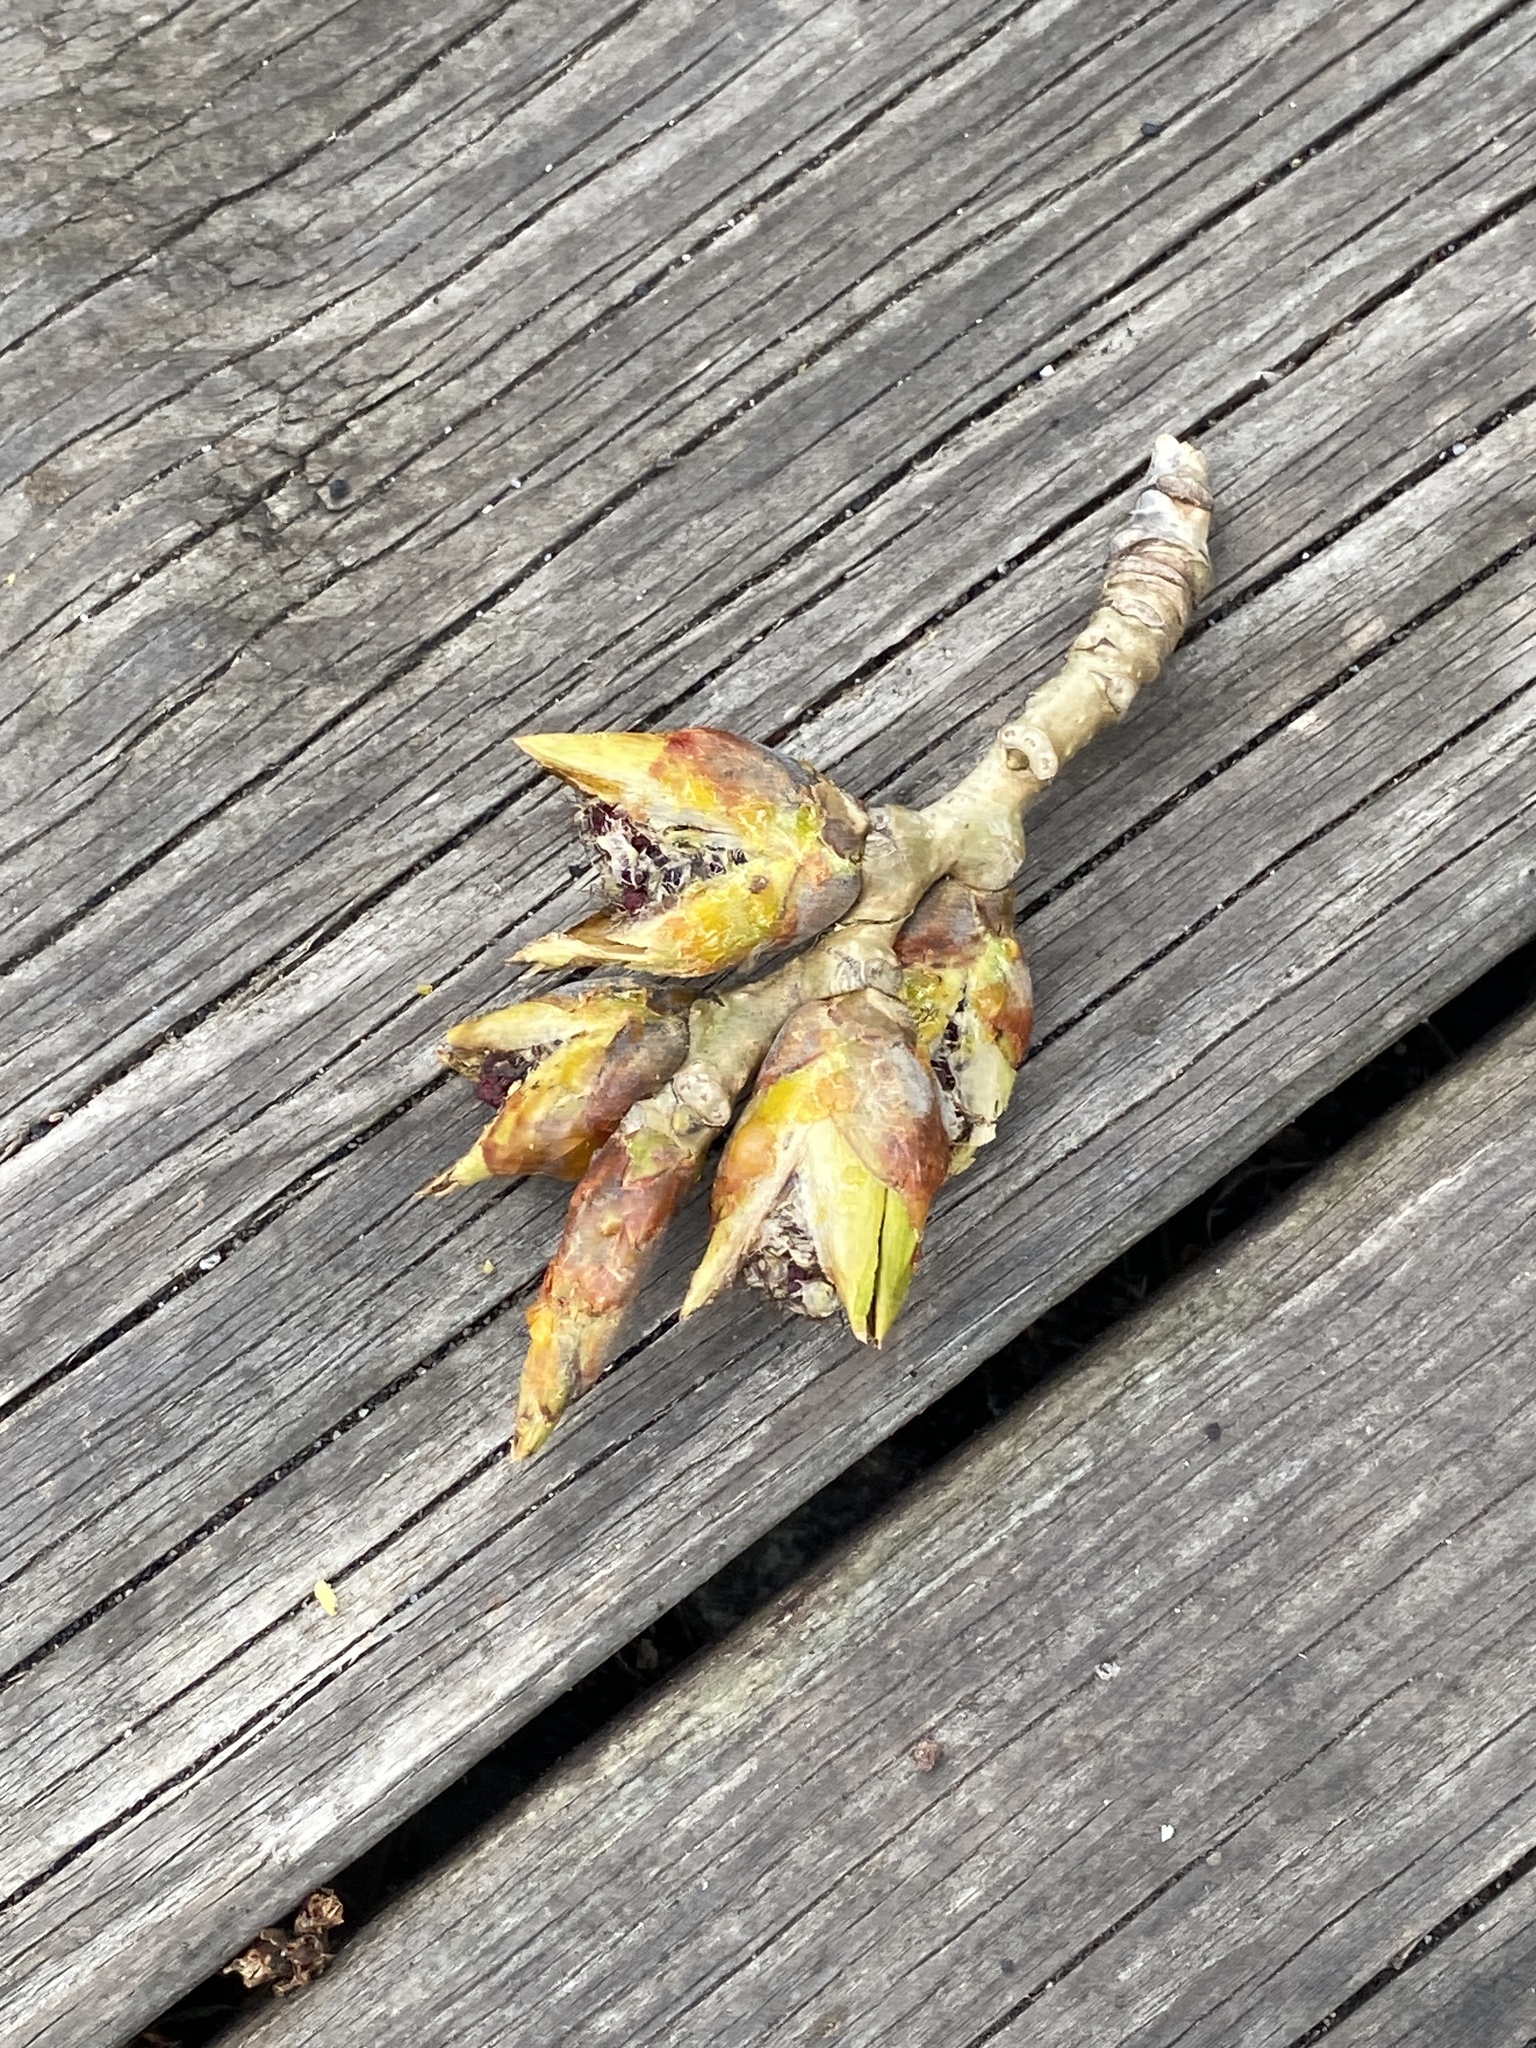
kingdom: Plantae
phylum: Tracheophyta
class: Magnoliopsida
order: Malpighiales
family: Salicaceae
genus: Populus
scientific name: Populus deltoides
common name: Eastern cottonwood
